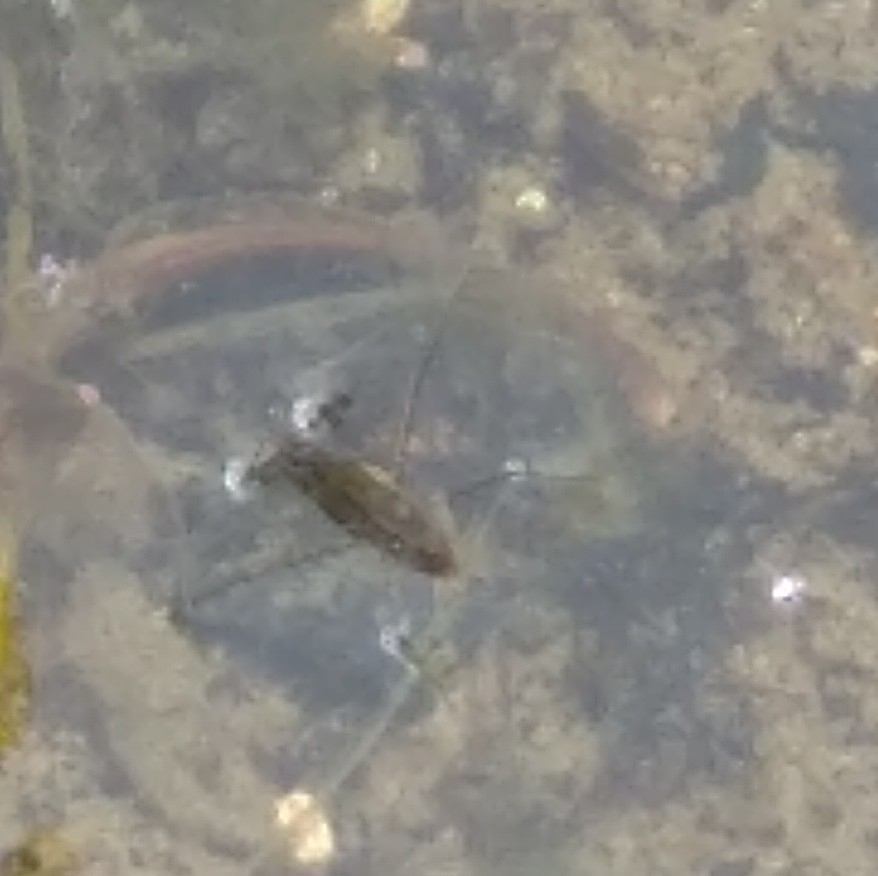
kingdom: Animalia
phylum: Arthropoda
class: Insecta
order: Hemiptera
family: Gerridae
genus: Gerris
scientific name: Gerris
